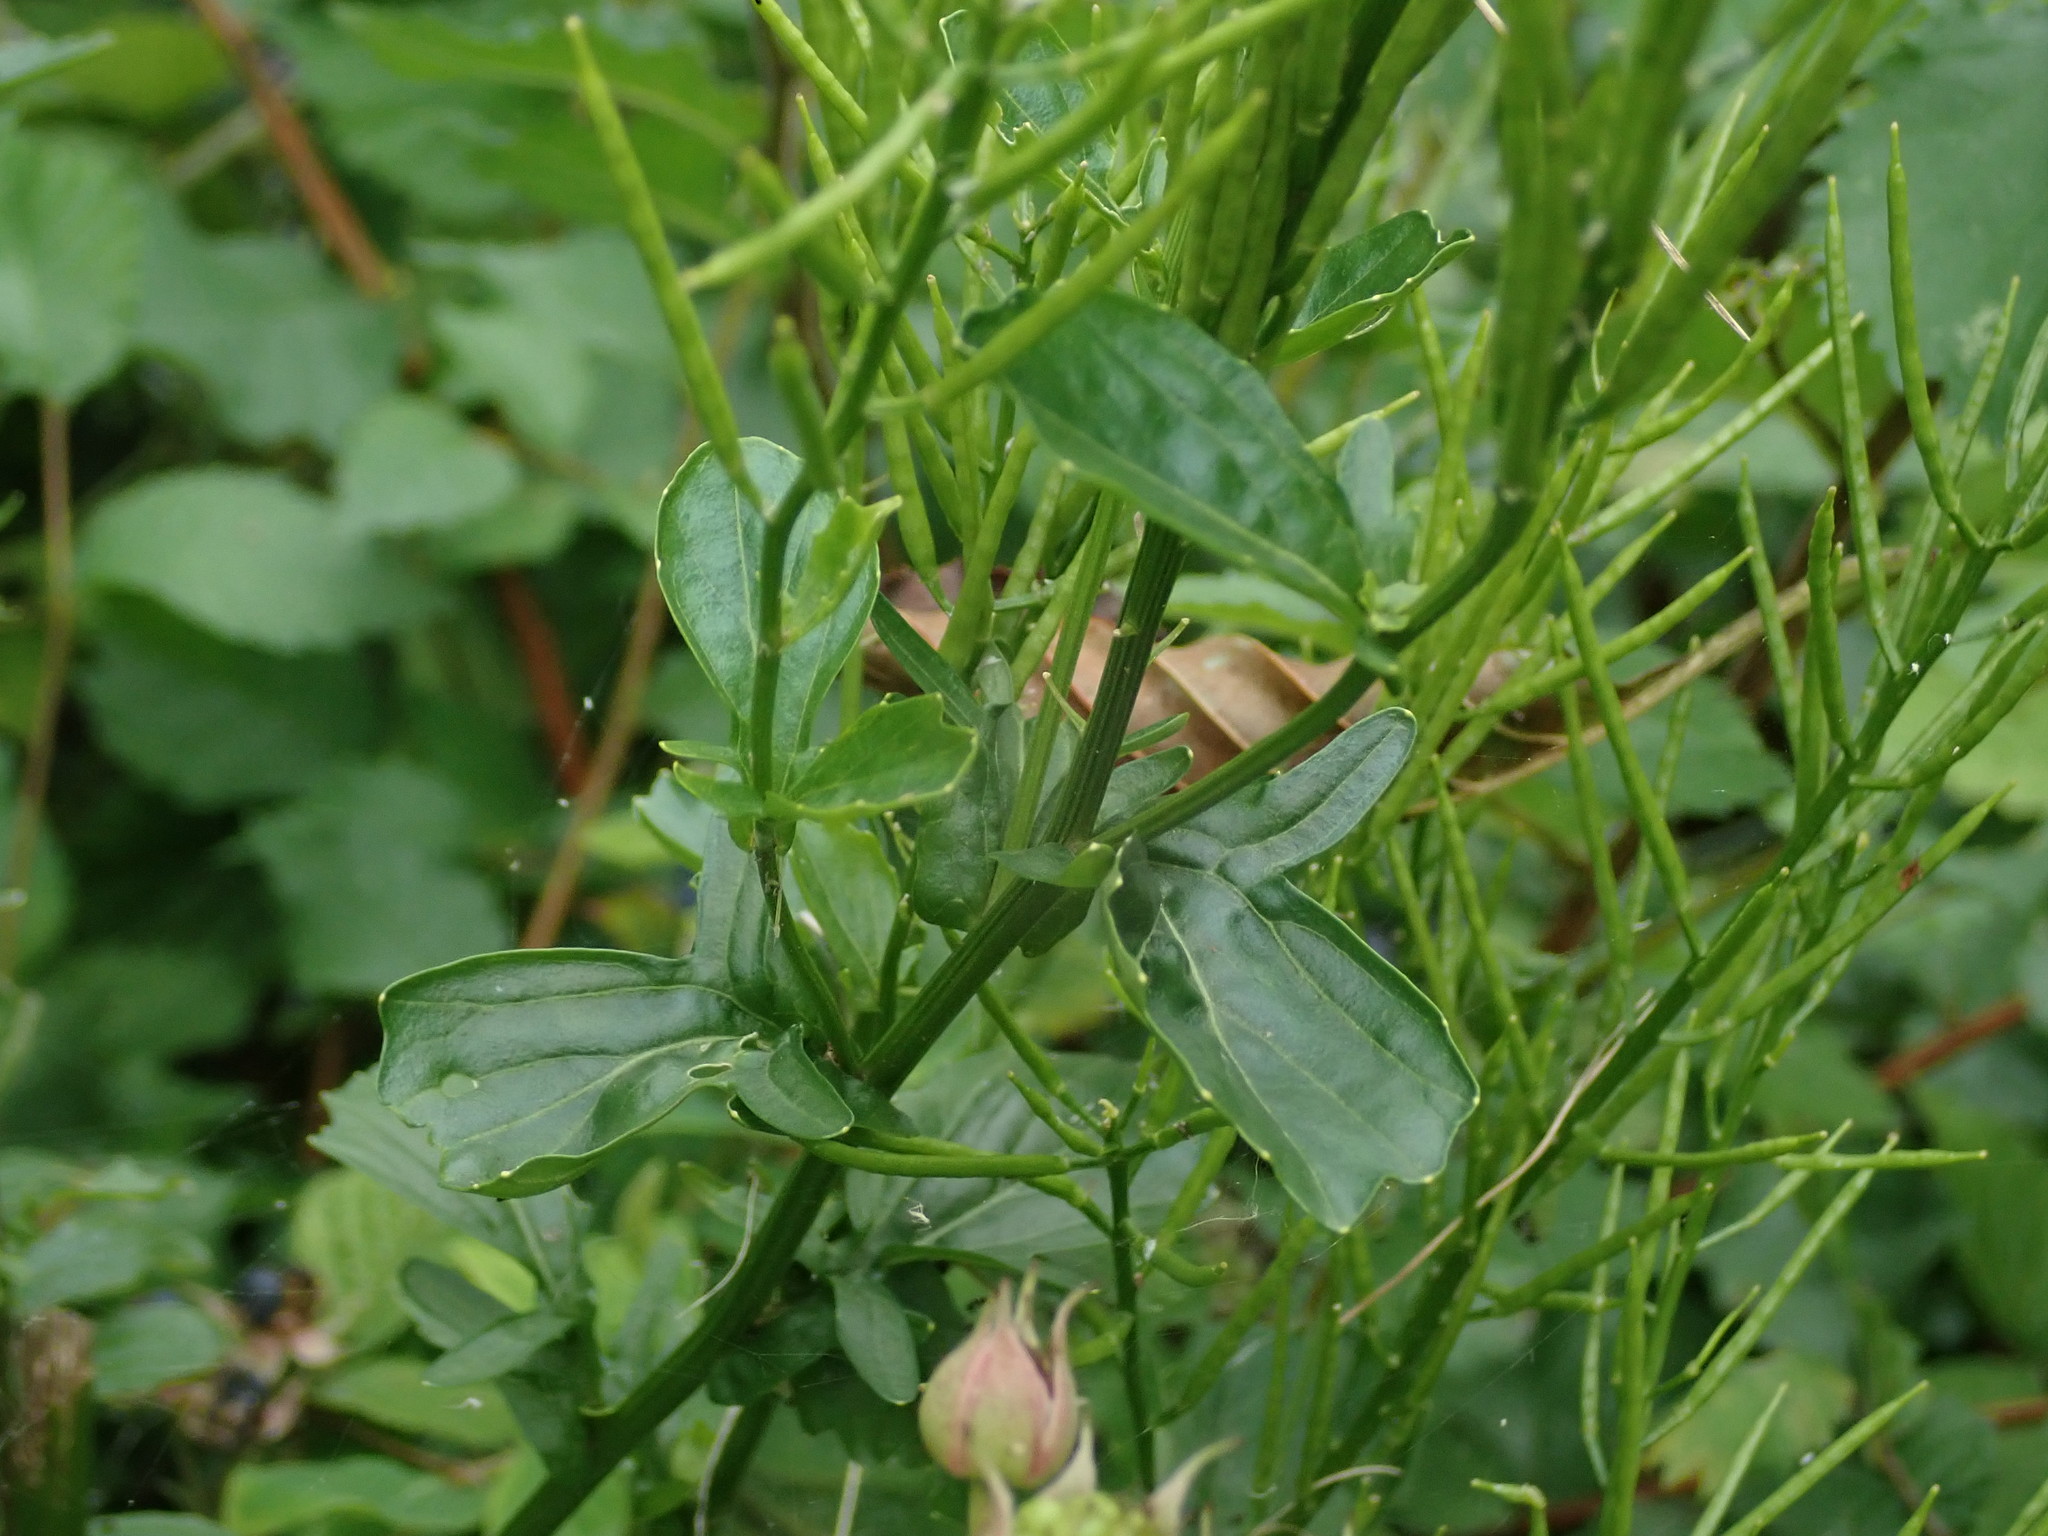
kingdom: Plantae
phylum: Tracheophyta
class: Magnoliopsida
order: Brassicales
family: Brassicaceae
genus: Barbarea
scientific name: Barbarea vulgaris
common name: Cressy-greens
